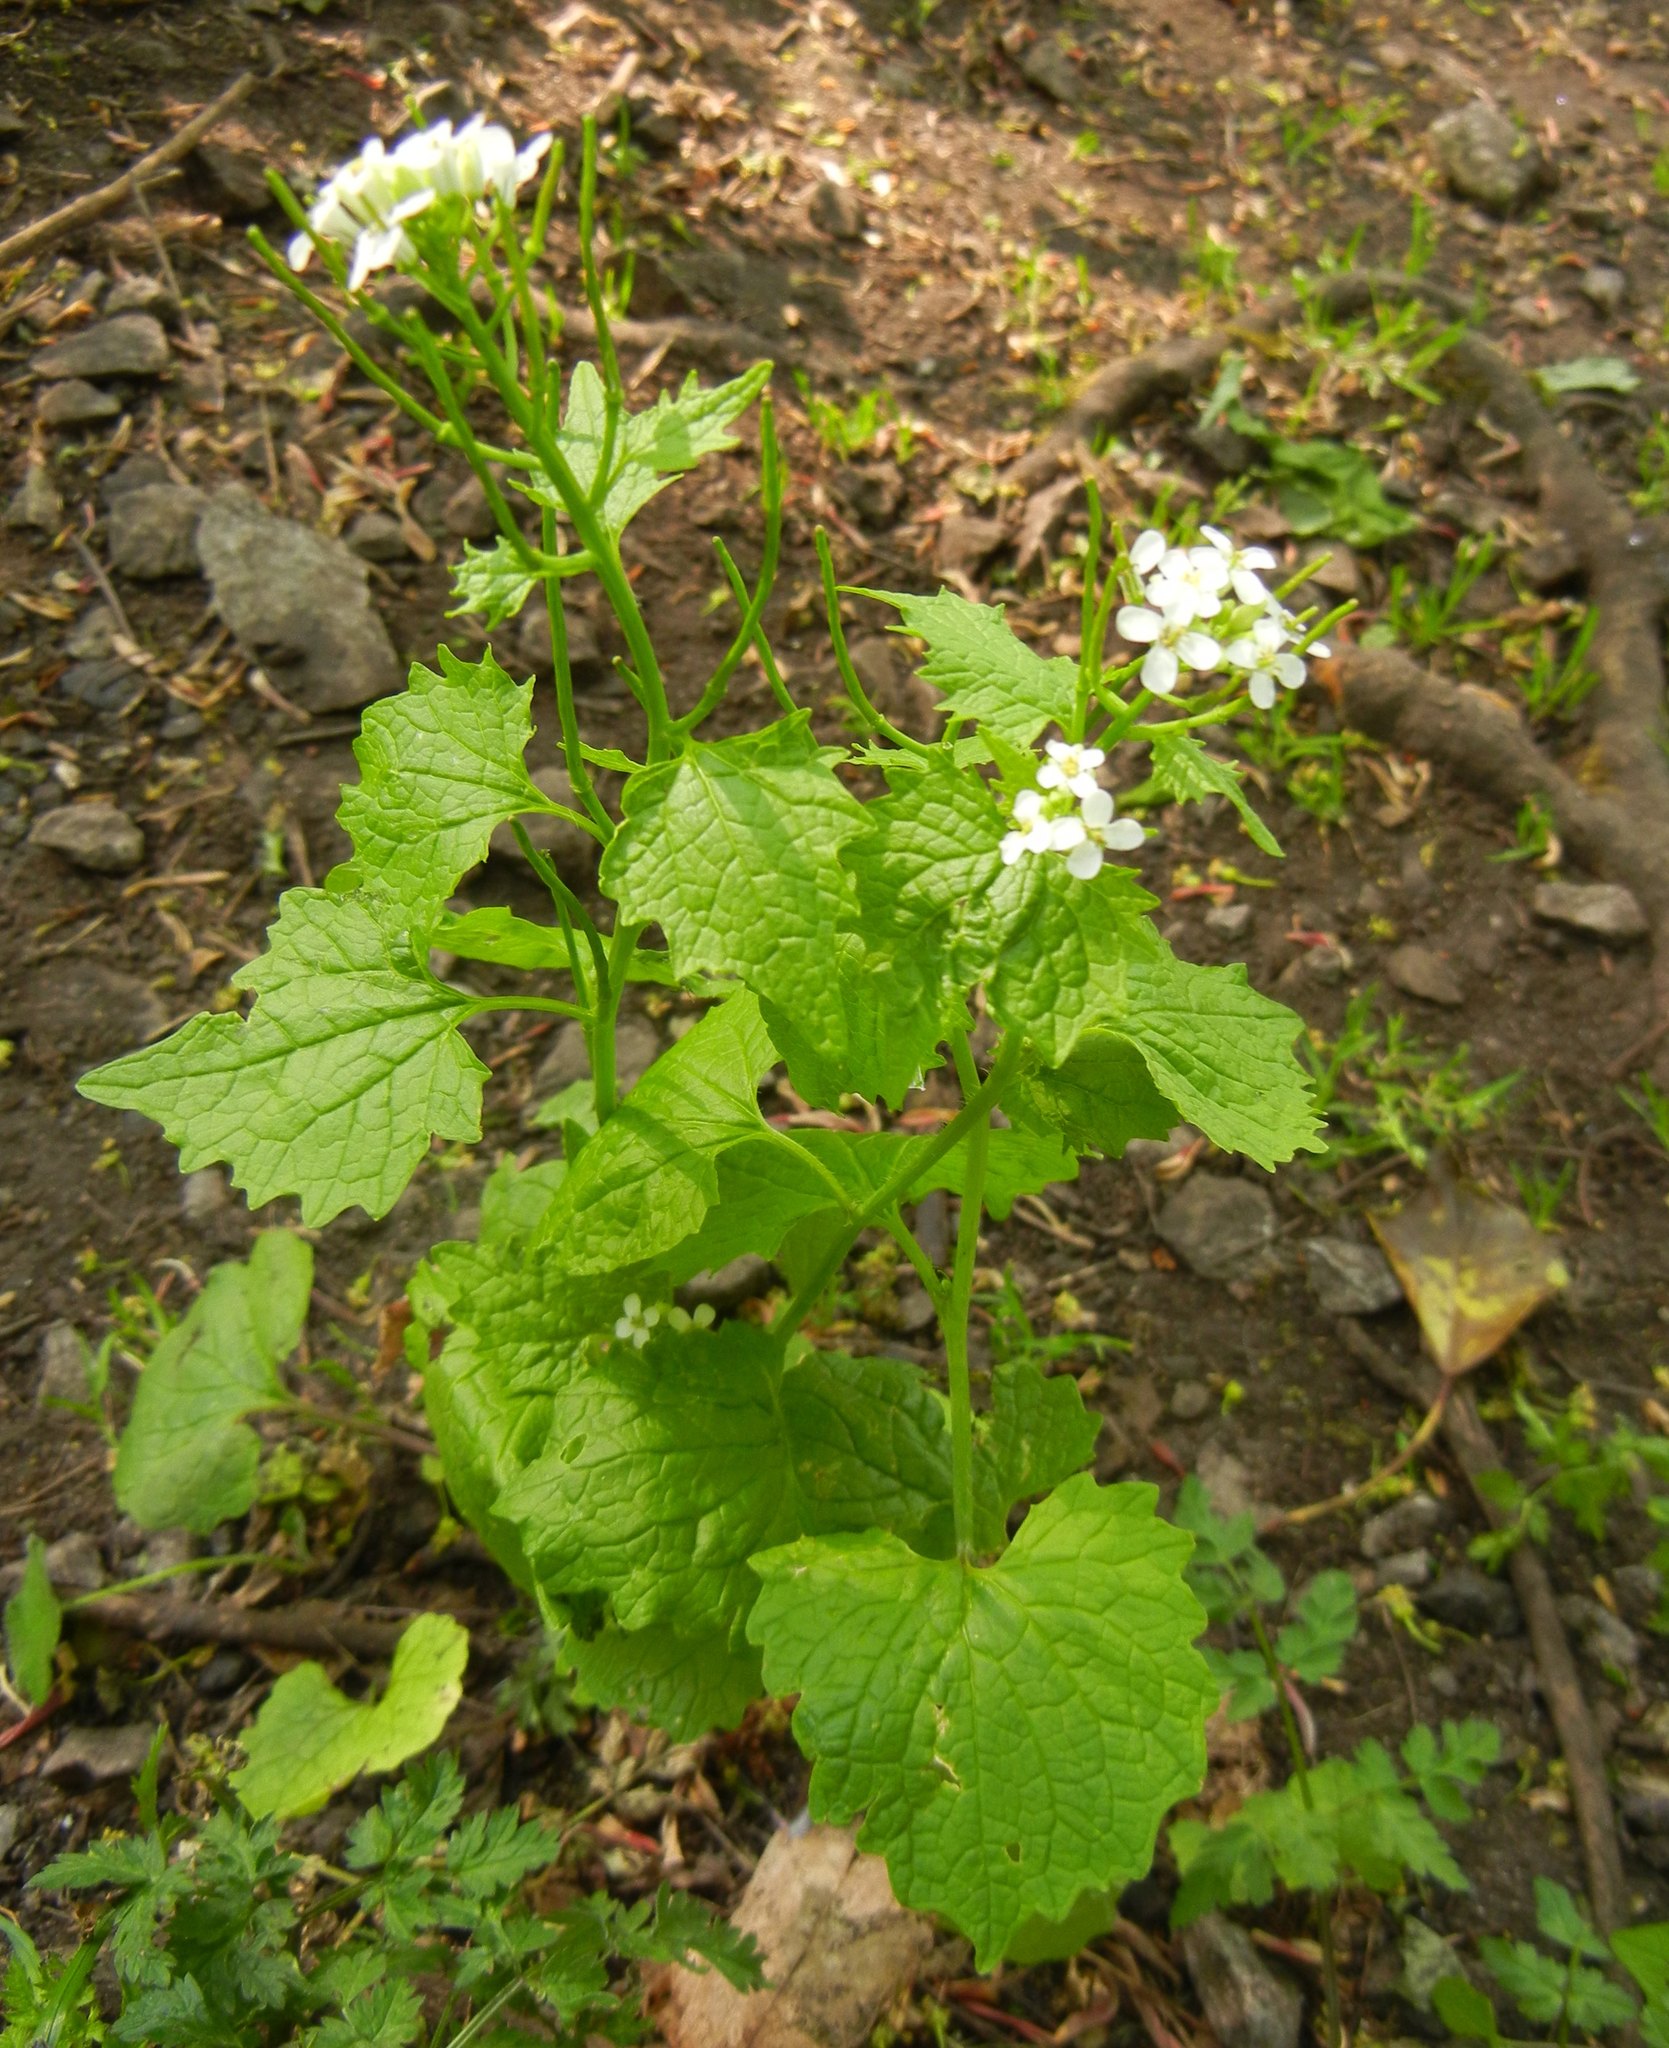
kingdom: Plantae
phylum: Tracheophyta
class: Magnoliopsida
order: Brassicales
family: Brassicaceae
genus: Alliaria
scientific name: Alliaria petiolata
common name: Garlic mustard
